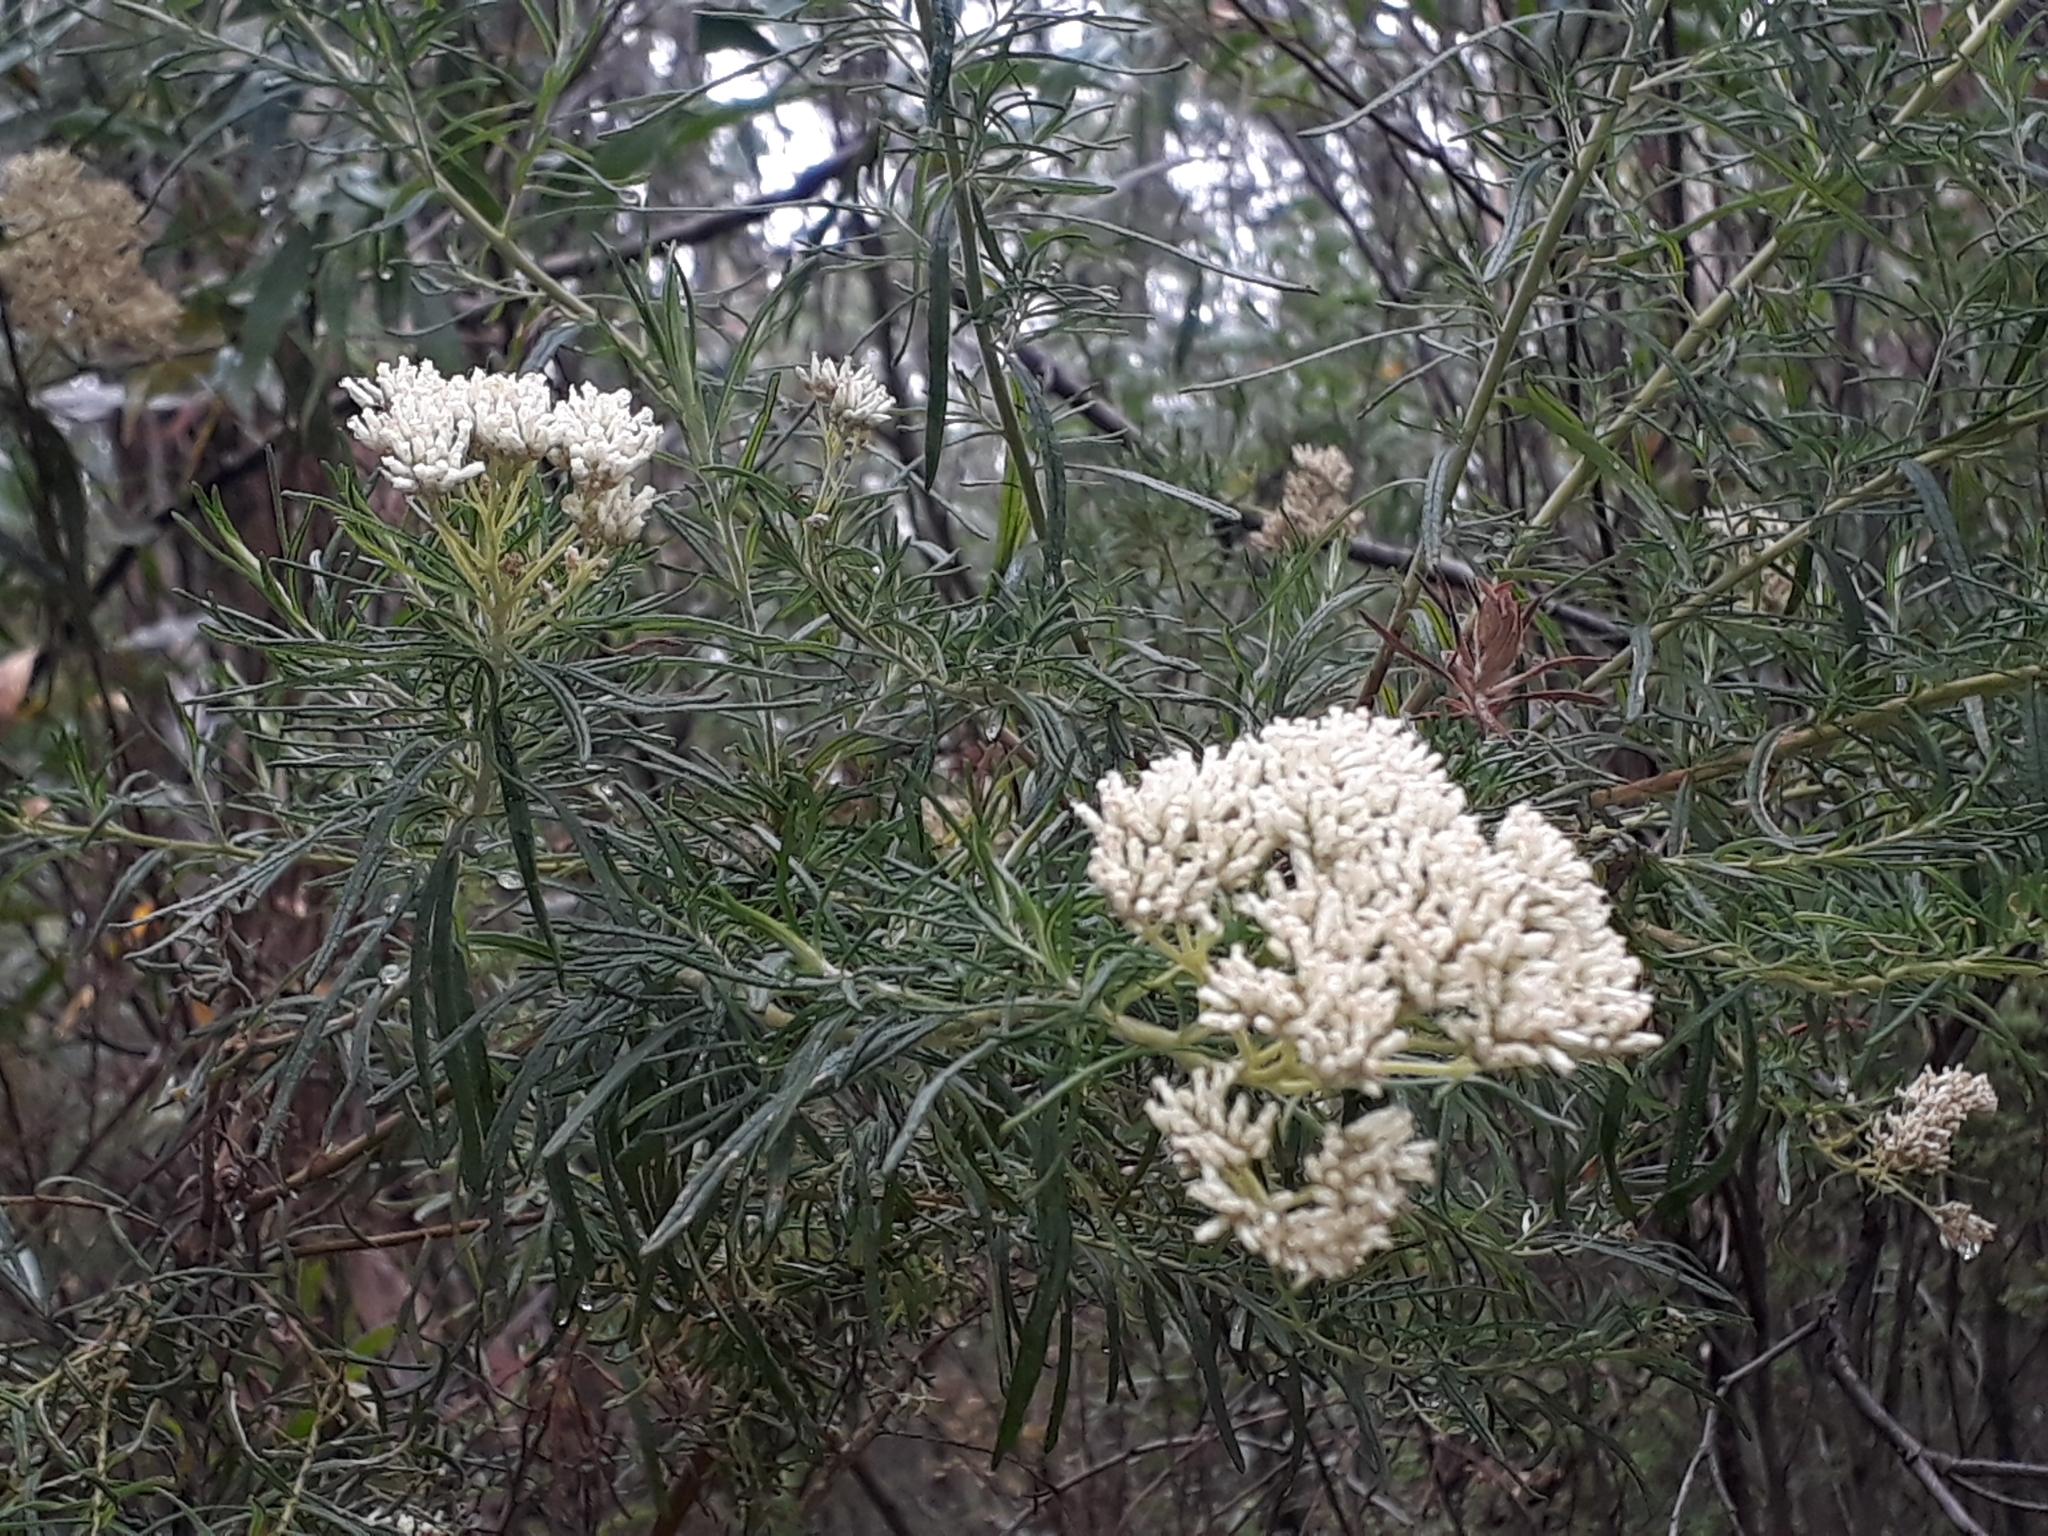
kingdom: Plantae
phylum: Tracheophyta
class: Magnoliopsida
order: Asterales
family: Asteraceae
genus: Cassinia
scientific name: Cassinia longifolia
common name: Longleaf-dogwood
